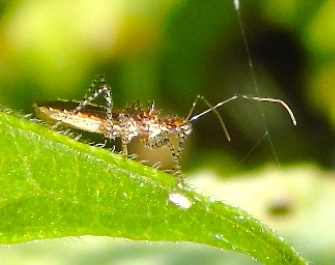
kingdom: Animalia
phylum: Arthropoda
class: Insecta
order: Hemiptera
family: Reduviidae
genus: Pselliopus
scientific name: Pselliopus
